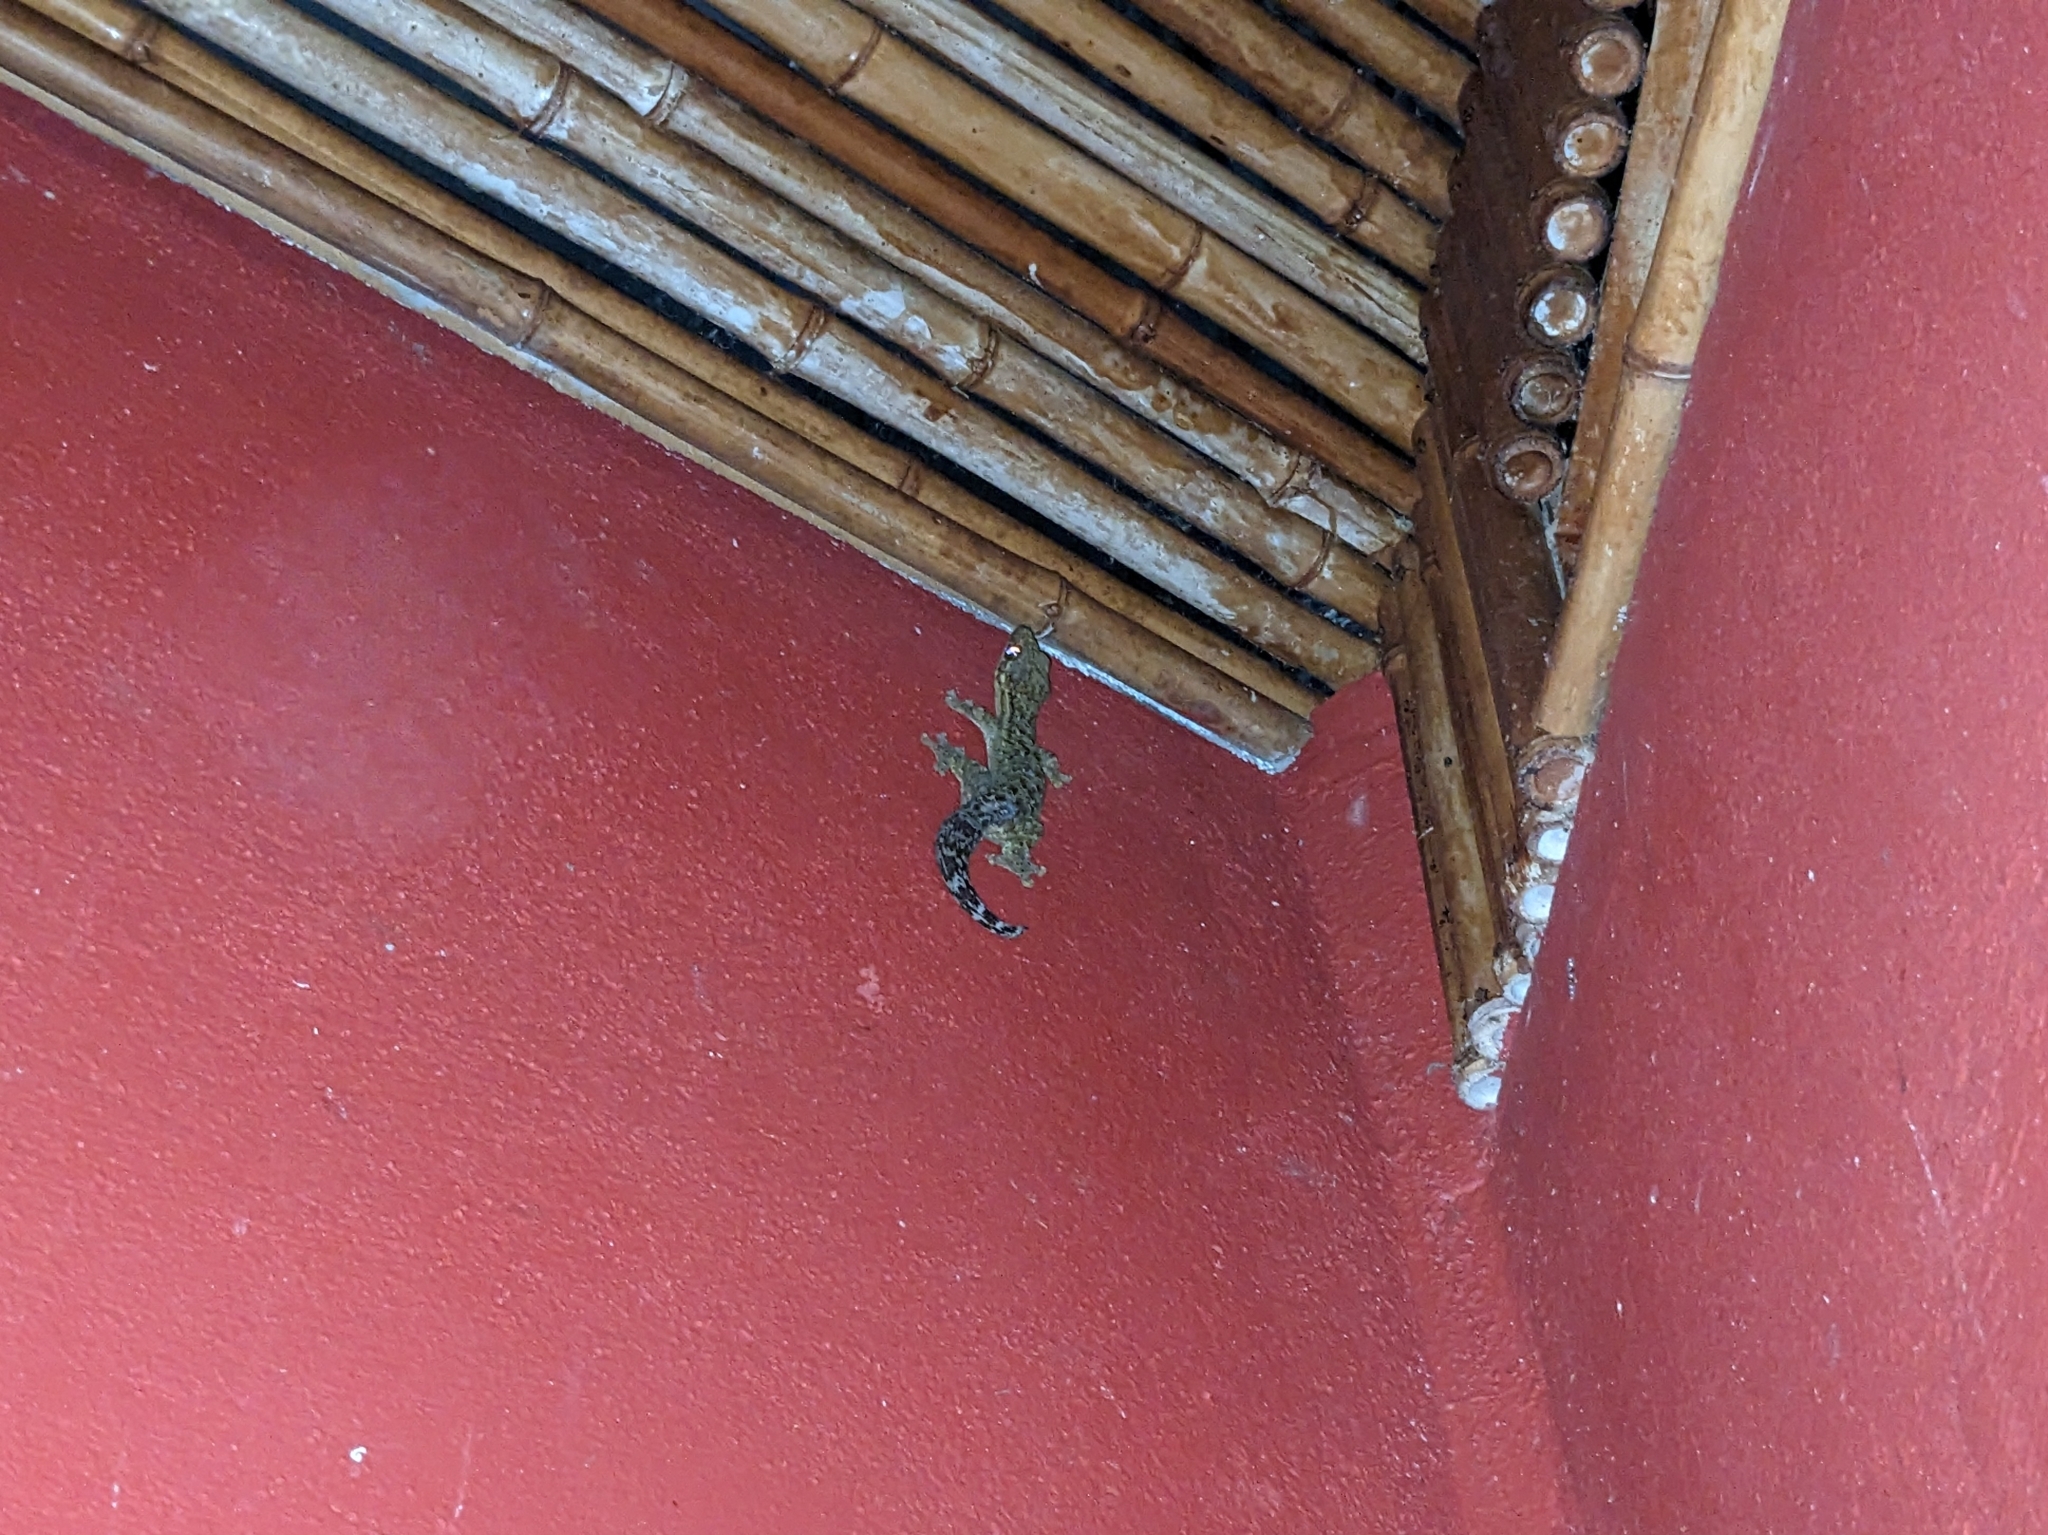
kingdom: Animalia
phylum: Chordata
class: Squamata
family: Phyllodactylidae
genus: Thecadactylus
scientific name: Thecadactylus rapicauda
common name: Turnip-tailed gecko
